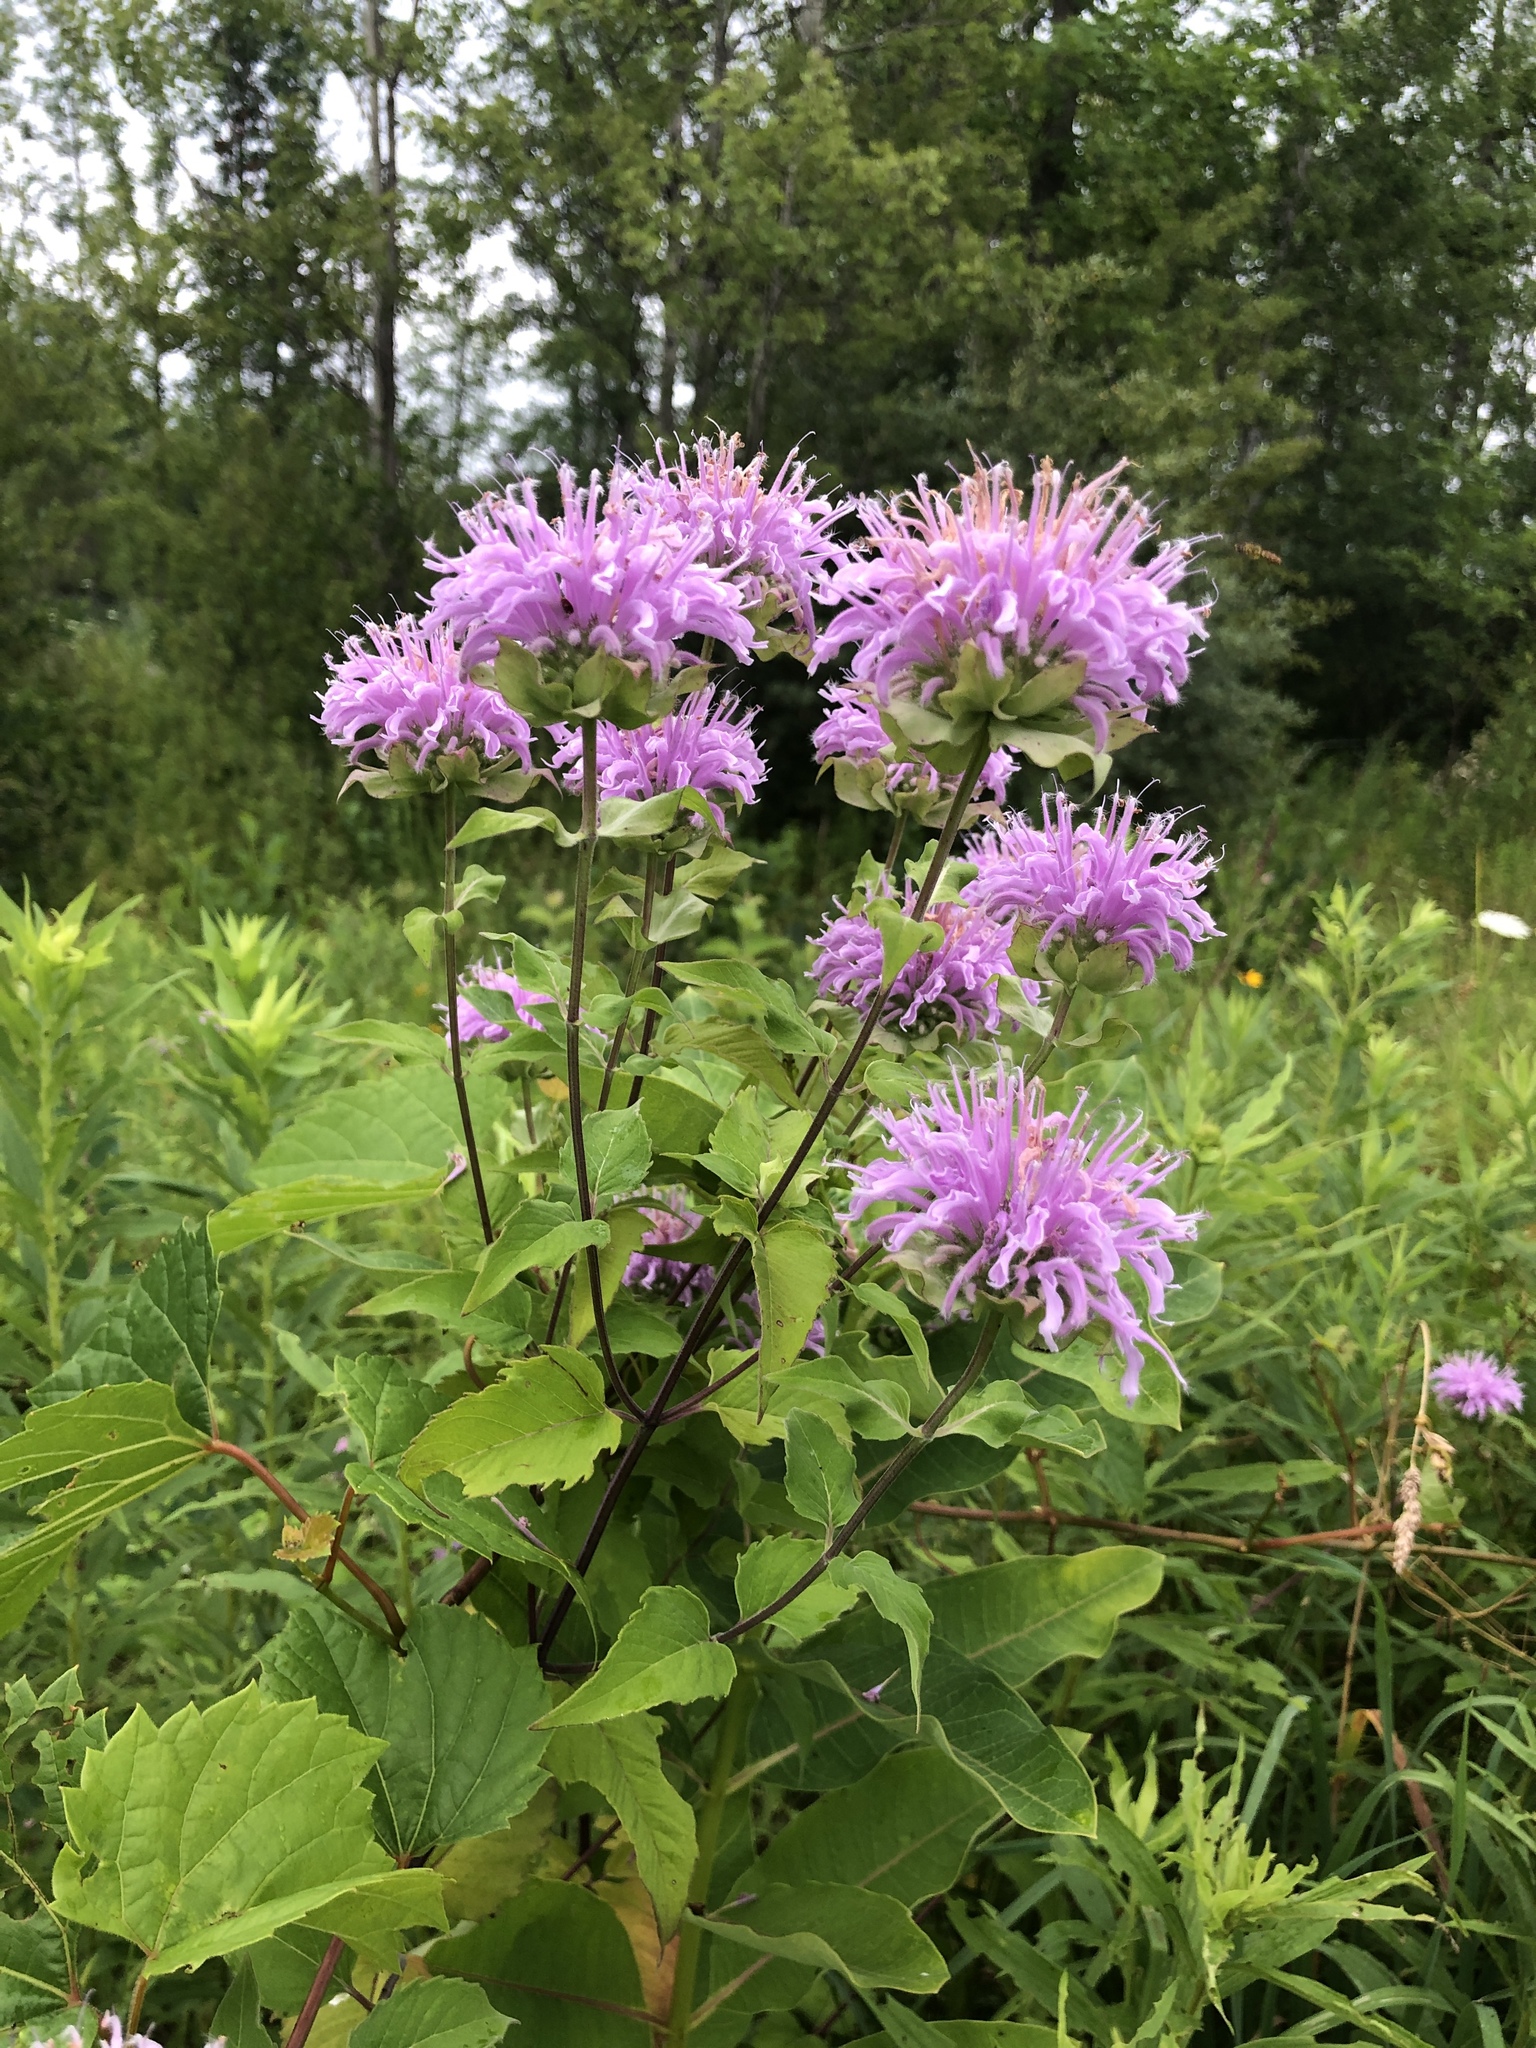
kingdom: Plantae
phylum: Tracheophyta
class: Magnoliopsida
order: Lamiales
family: Lamiaceae
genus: Monarda
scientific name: Monarda fistulosa
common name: Purple beebalm
